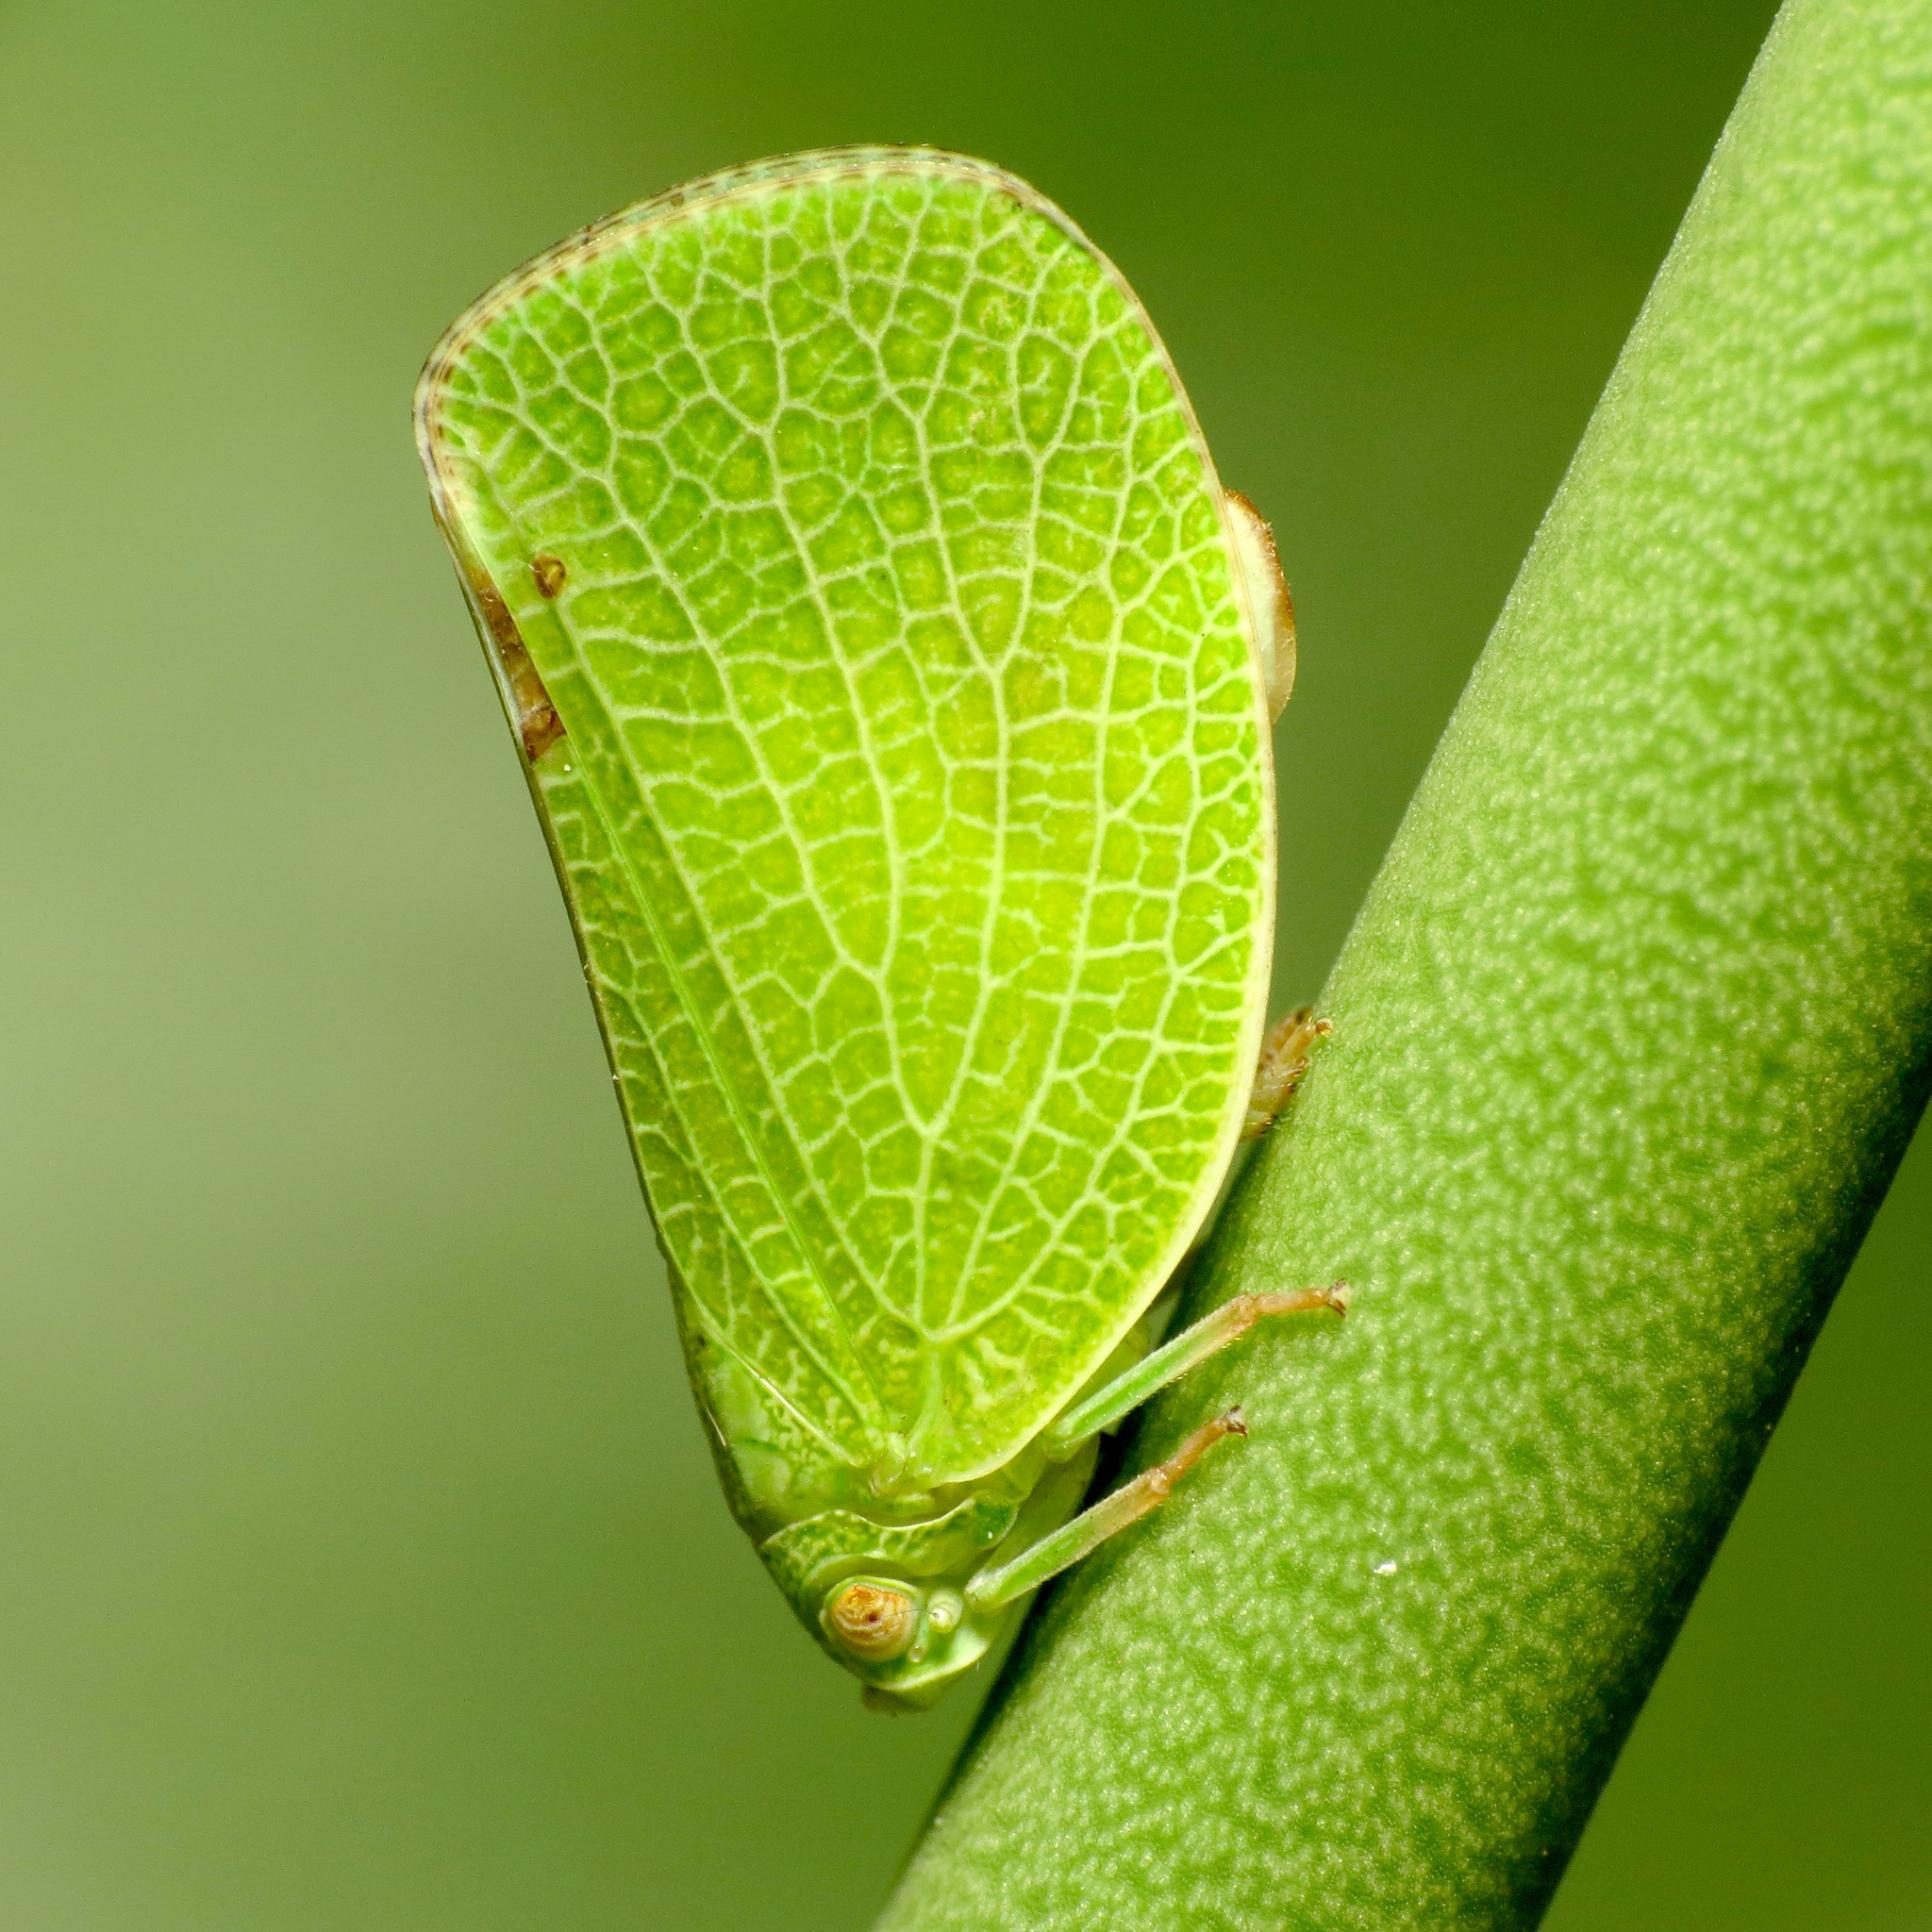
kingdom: Animalia
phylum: Arthropoda
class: Insecta
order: Hemiptera
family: Acanaloniidae
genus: Acanalonia
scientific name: Acanalonia conica
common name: Green cone-headed planthopper
